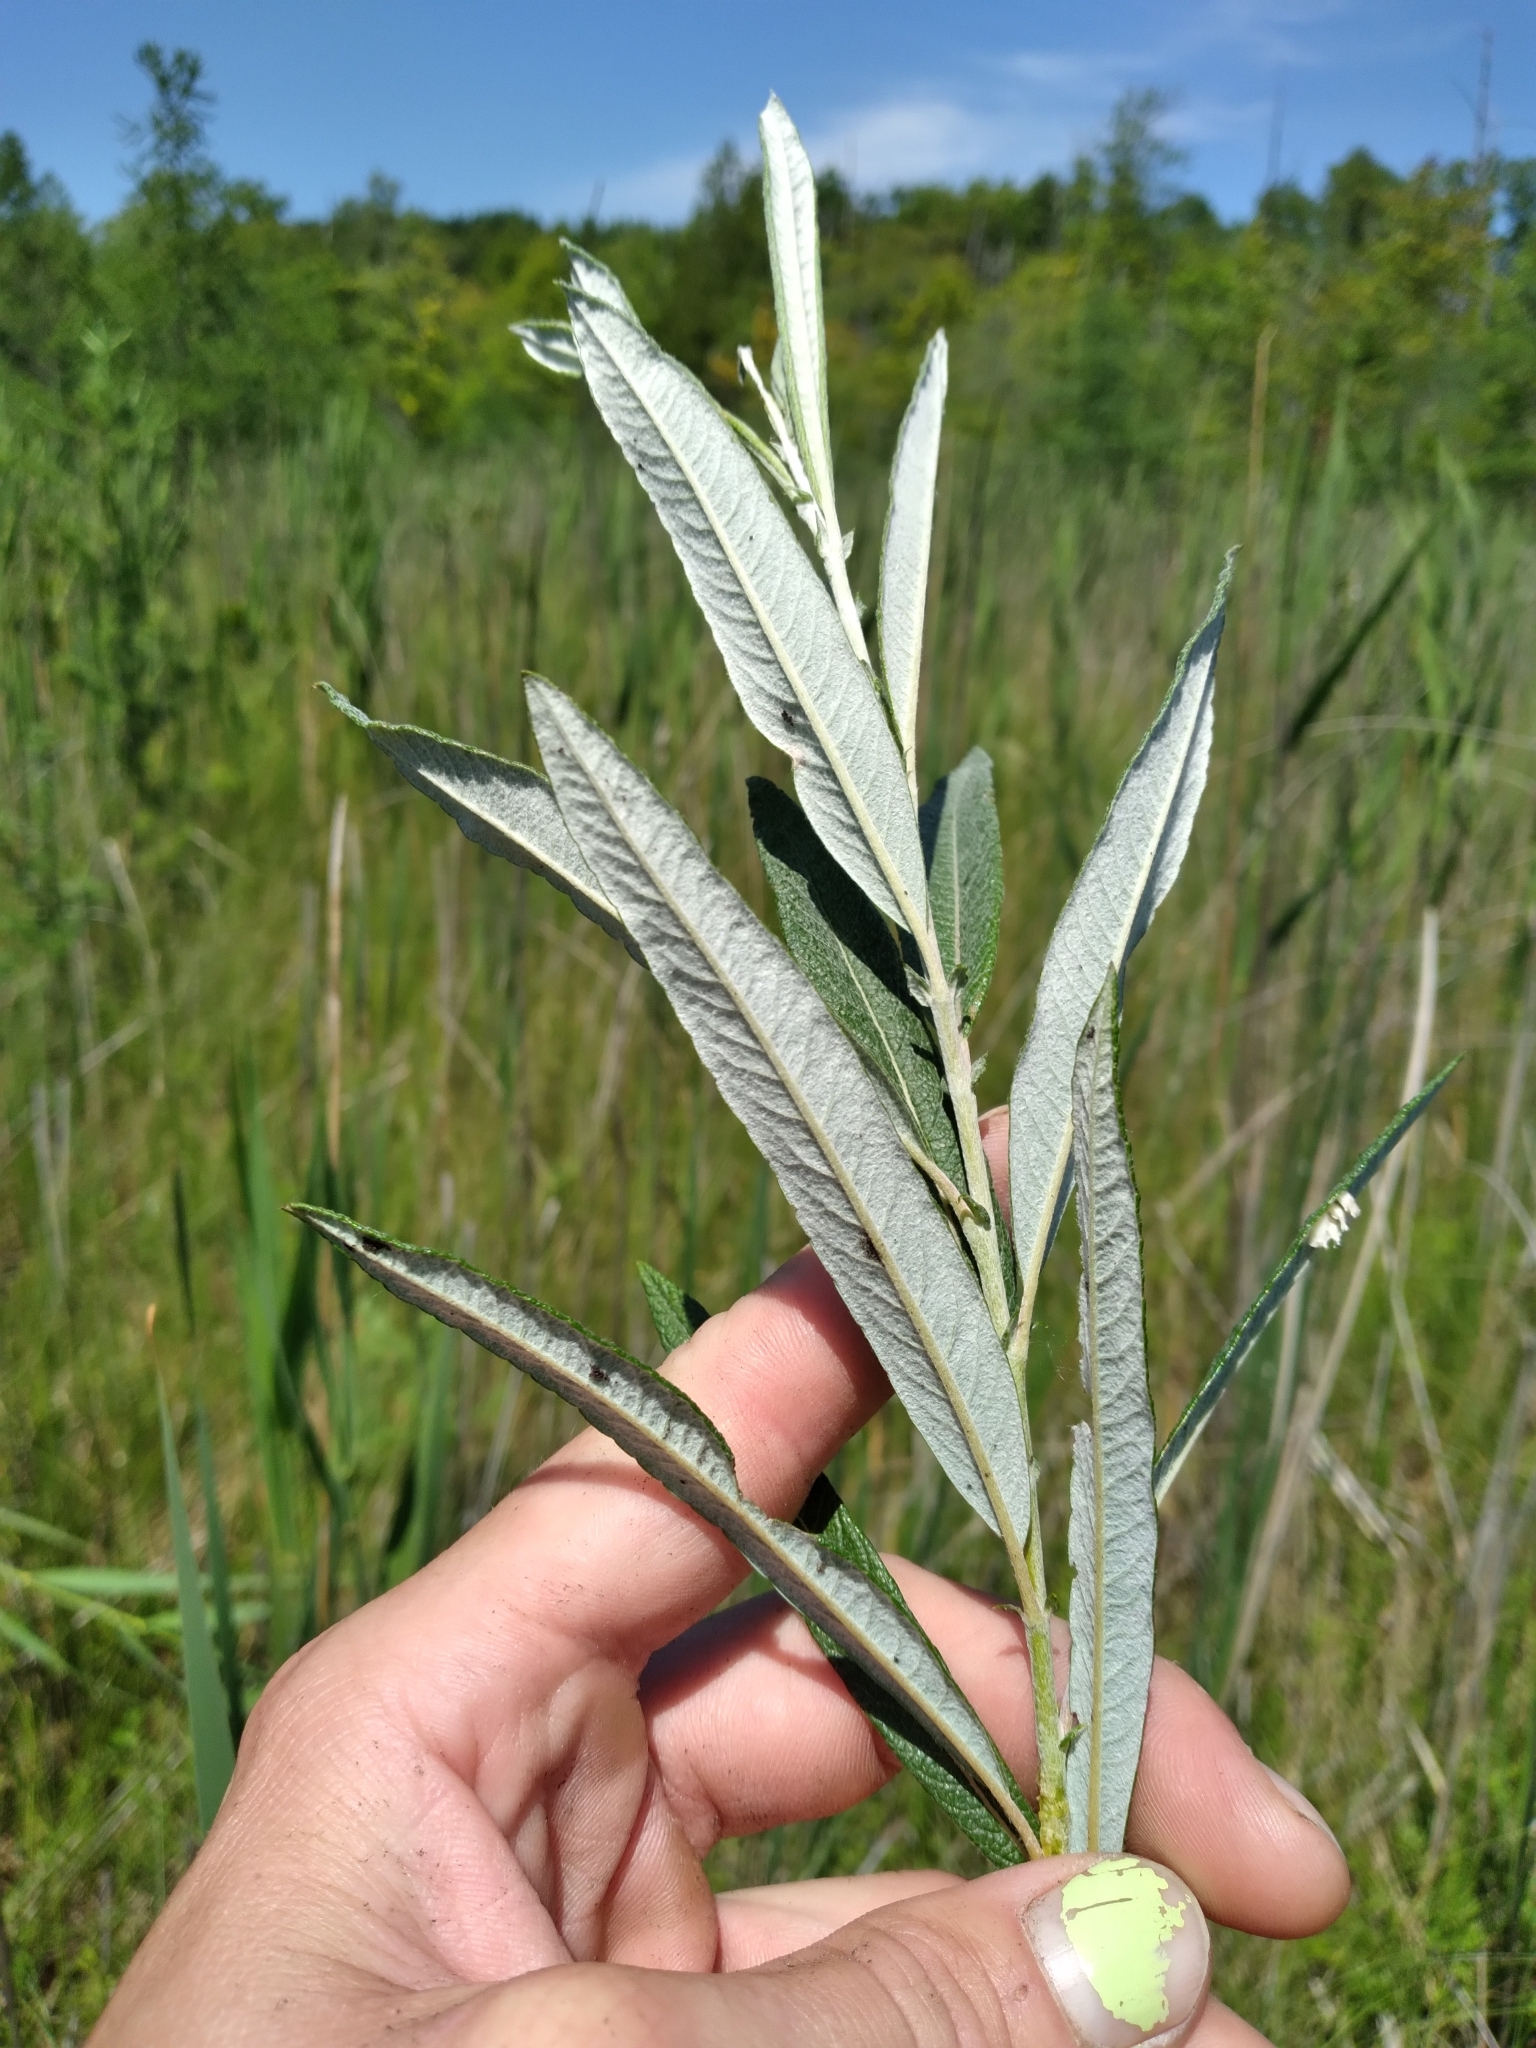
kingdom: Plantae
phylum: Tracheophyta
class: Magnoliopsida
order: Malpighiales
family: Salicaceae
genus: Salix
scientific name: Salix candida
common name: Hoary willow
